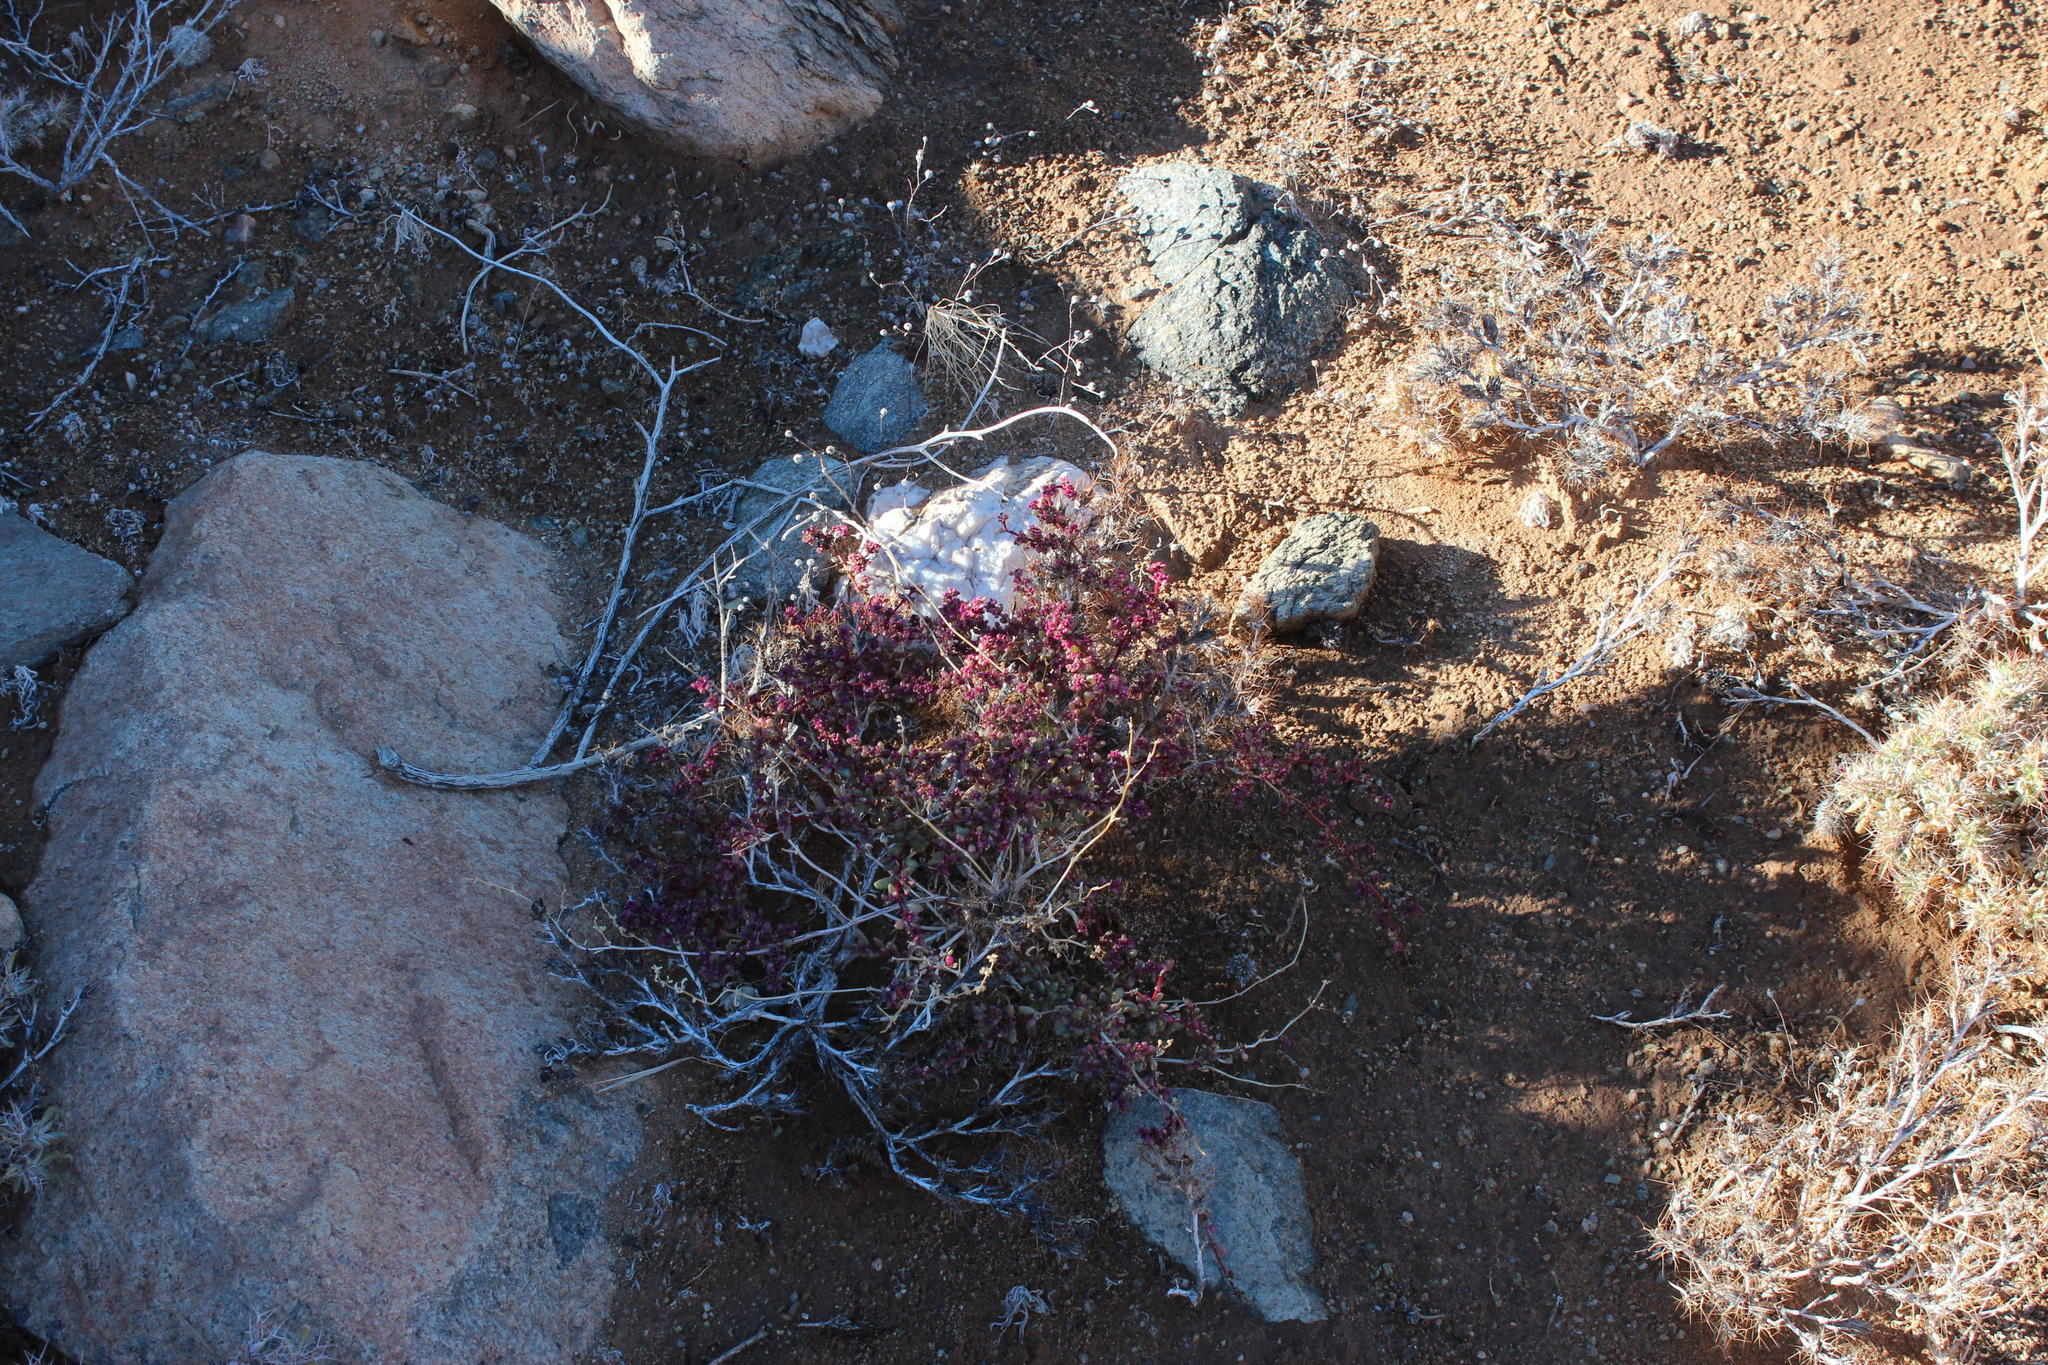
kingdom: Plantae
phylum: Tracheophyta
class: Magnoliopsida
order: Caryophyllales
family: Aizoaceae
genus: Trianthema
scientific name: Trianthema parvifolium
